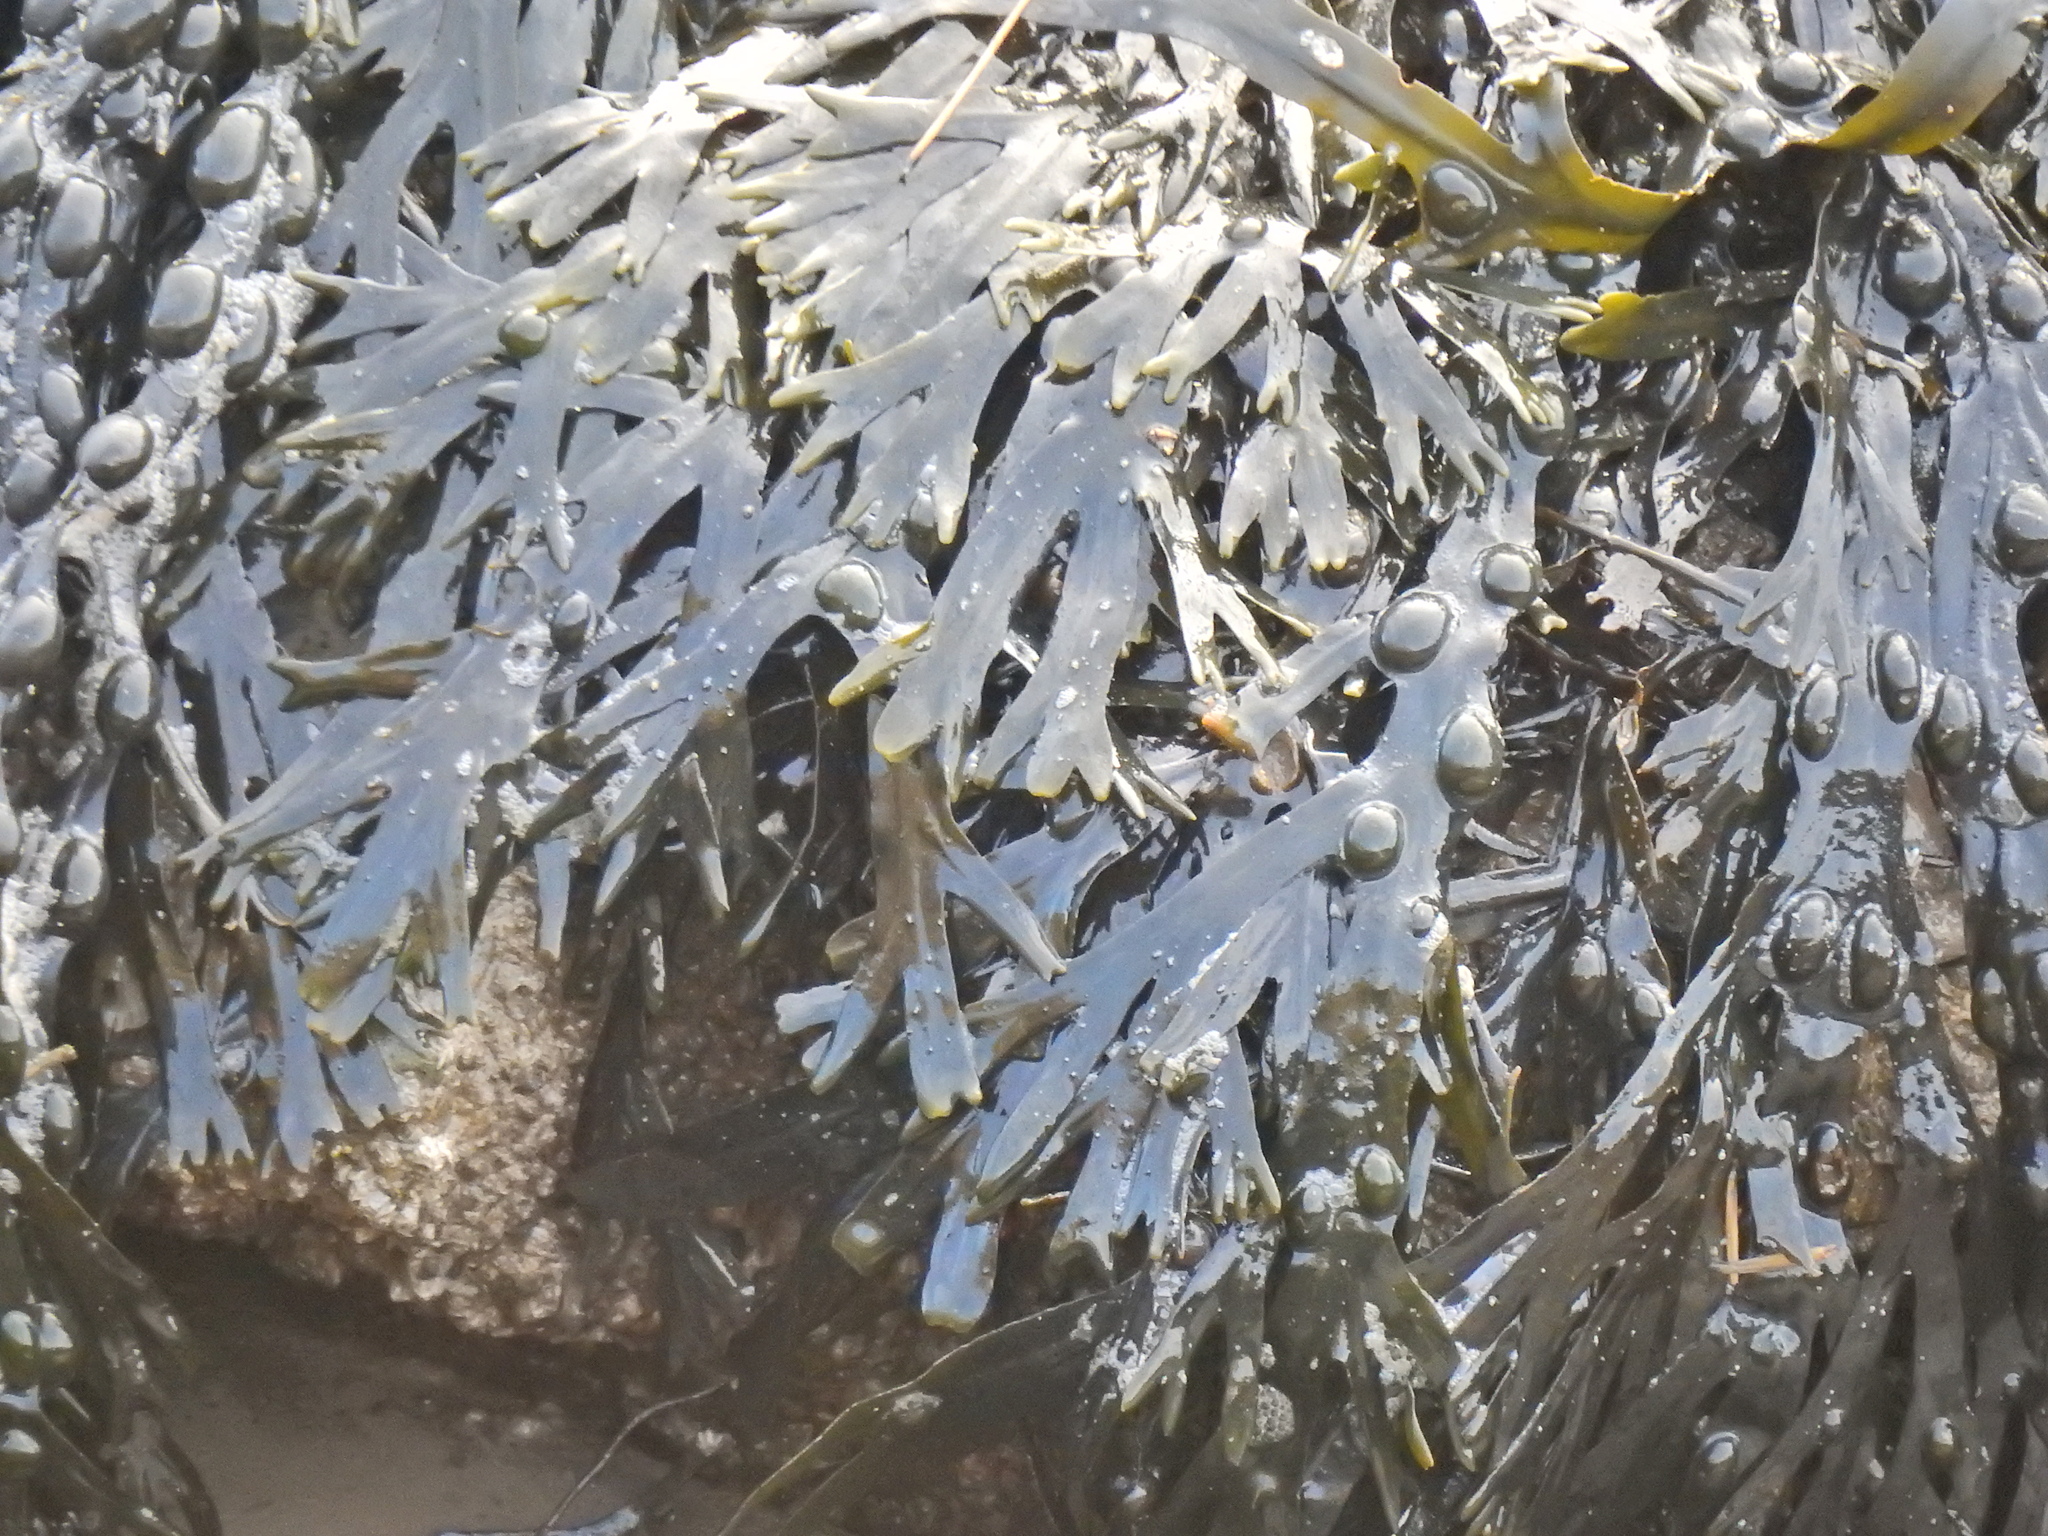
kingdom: Chromista
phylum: Ochrophyta
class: Phaeophyceae
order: Fucales
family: Fucaceae
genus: Fucus
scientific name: Fucus vesiculosus
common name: Bladder wrack
